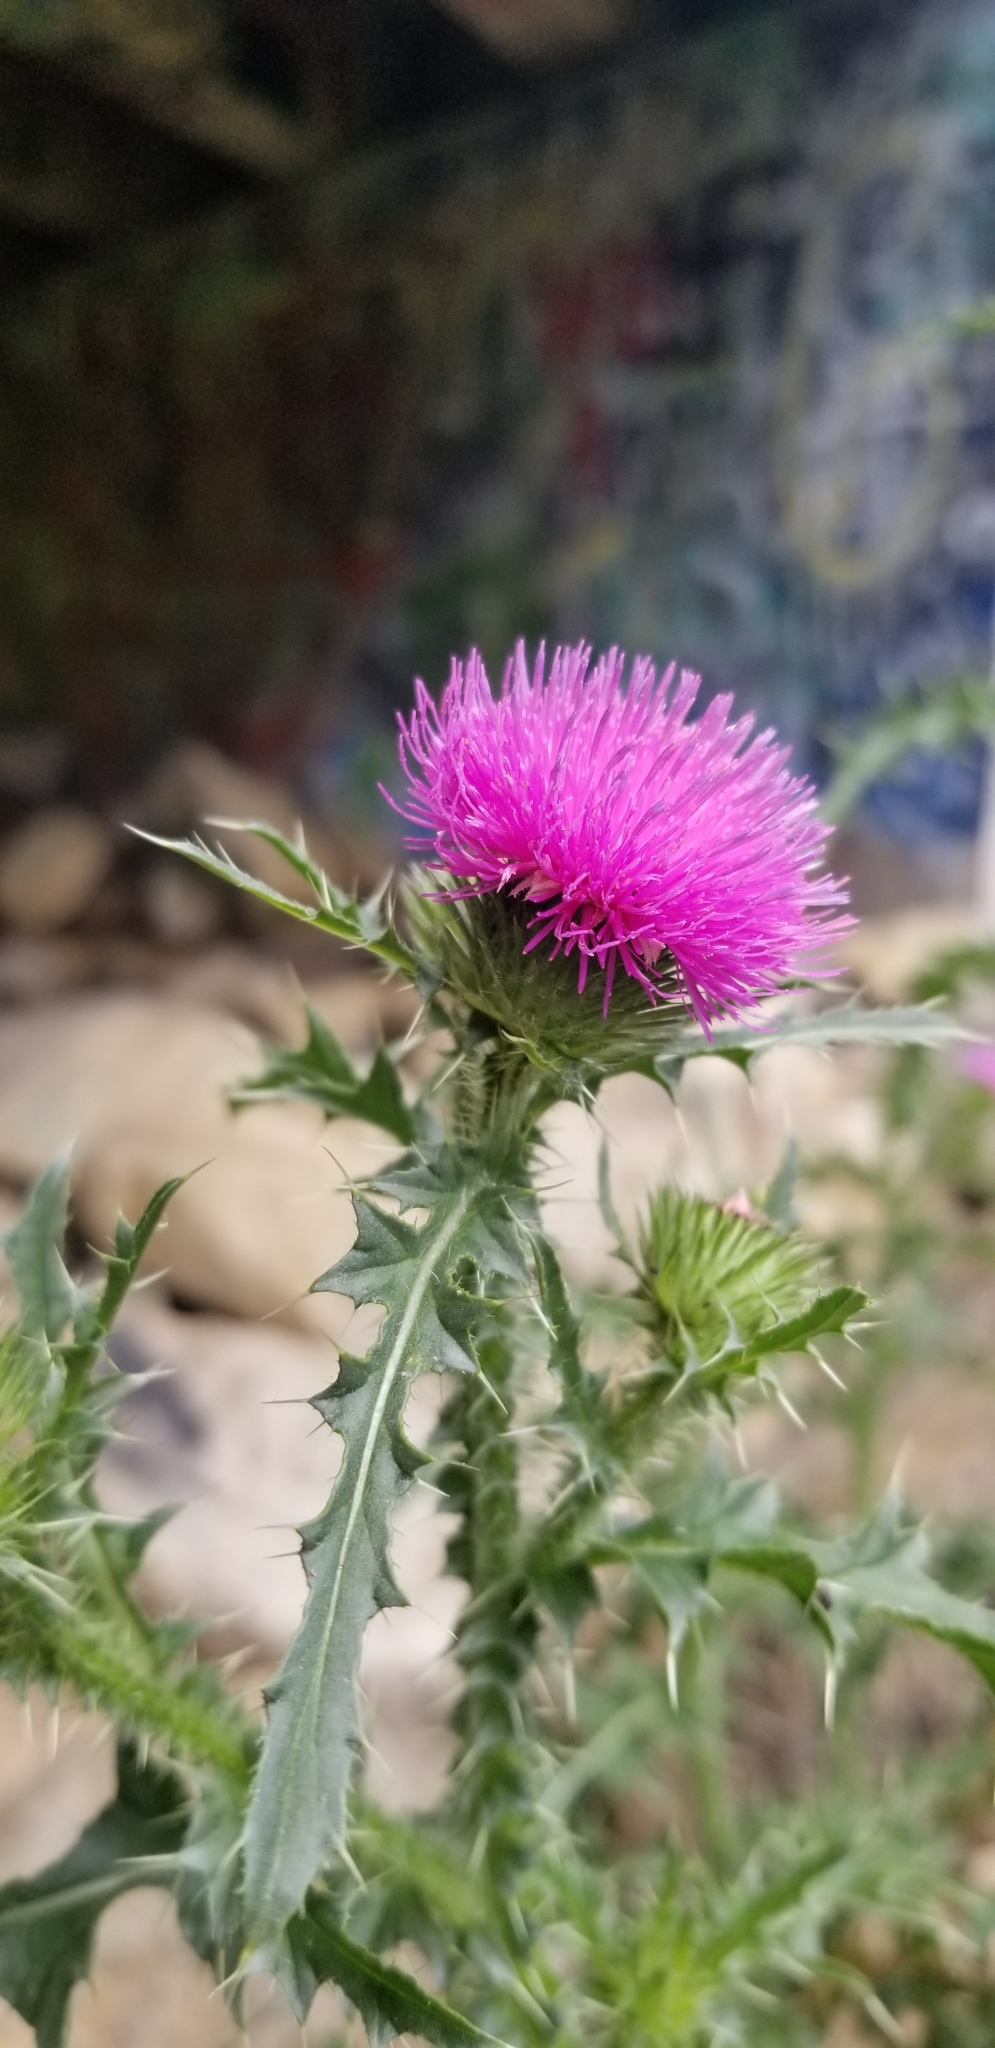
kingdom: Plantae
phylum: Tracheophyta
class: Magnoliopsida
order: Asterales
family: Asteraceae
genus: Carduus
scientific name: Carduus acanthoides
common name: Plumeless thistle
